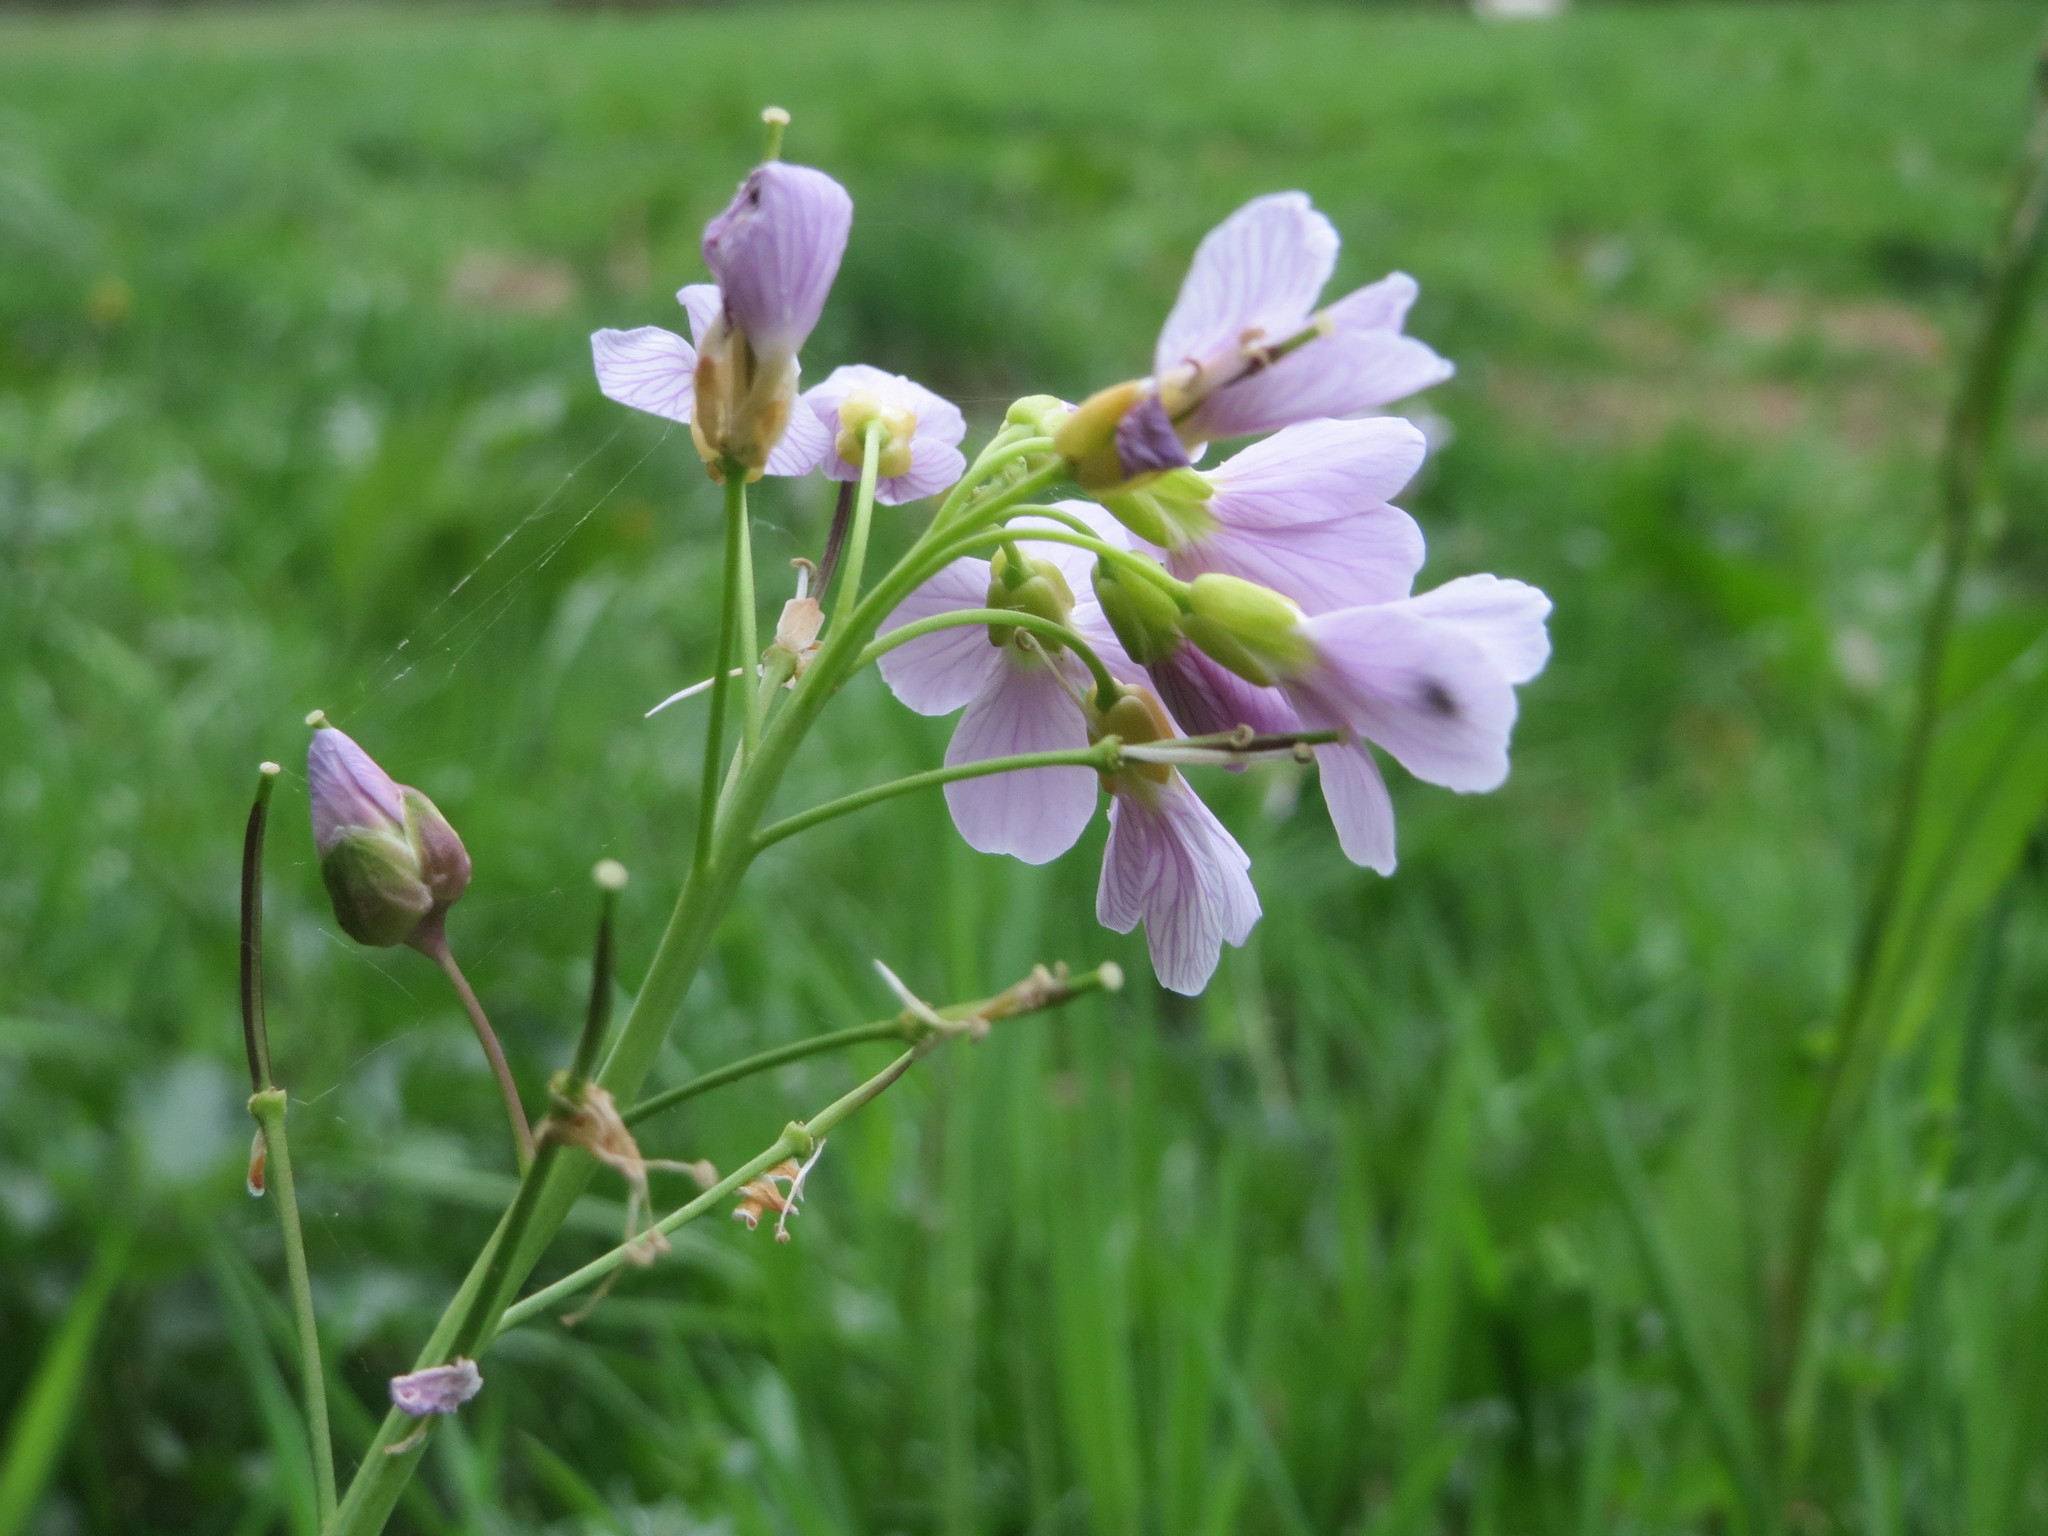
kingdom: Plantae
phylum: Tracheophyta
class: Magnoliopsida
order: Brassicales
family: Brassicaceae
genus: Cardamine
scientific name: Cardamine pratensis
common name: Cuckoo flower
